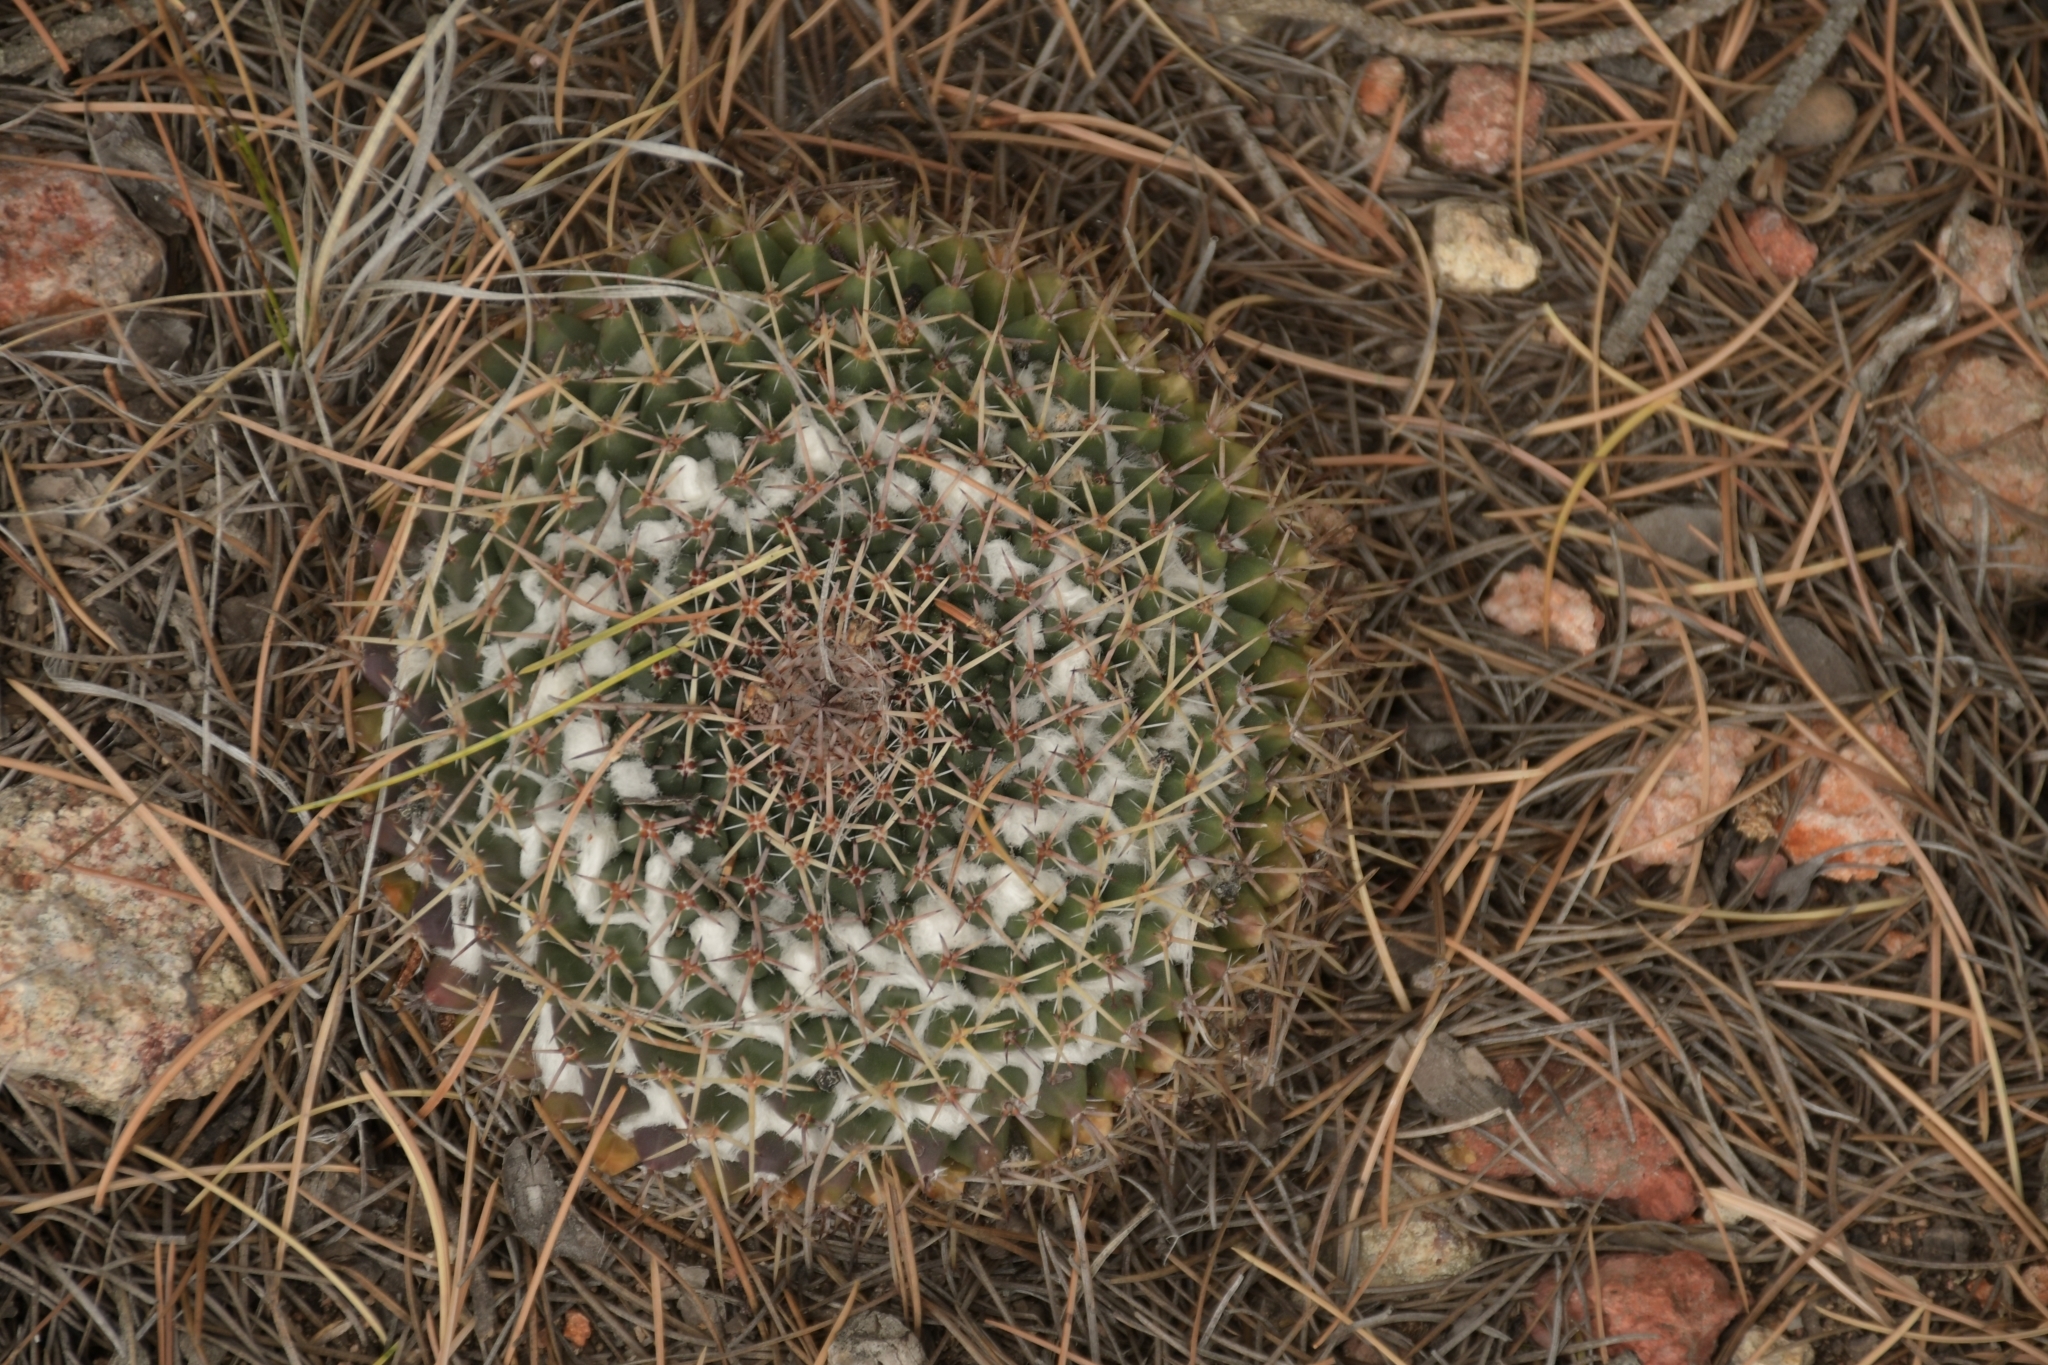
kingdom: Plantae
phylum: Tracheophyta
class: Magnoliopsida
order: Caryophyllales
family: Cactaceae
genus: Mammillaria
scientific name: Mammillaria gigantea
